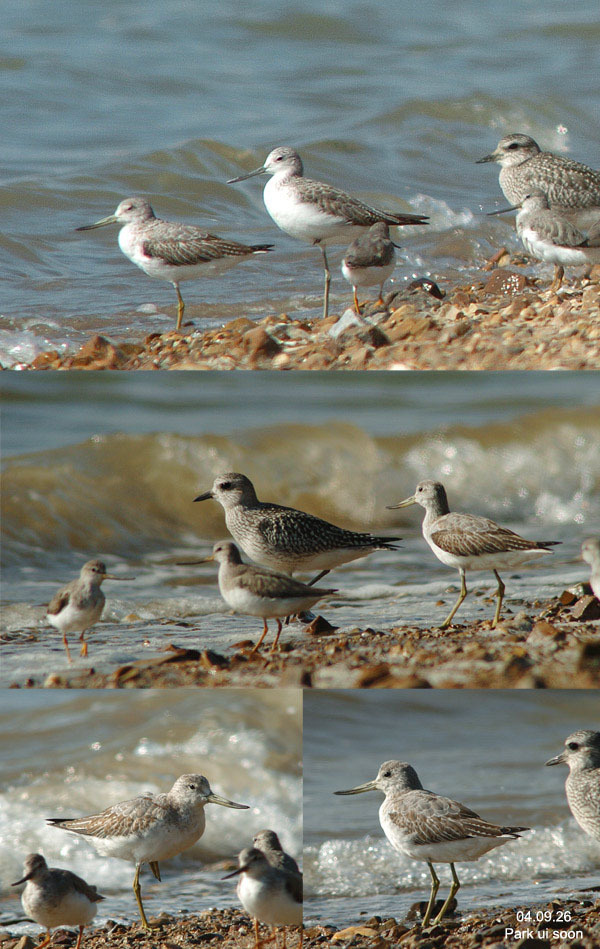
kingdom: Animalia
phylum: Chordata
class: Aves
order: Charadriiformes
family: Scolopacidae
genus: Tringa
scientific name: Tringa guttifer
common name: Nordmann's greenshank
